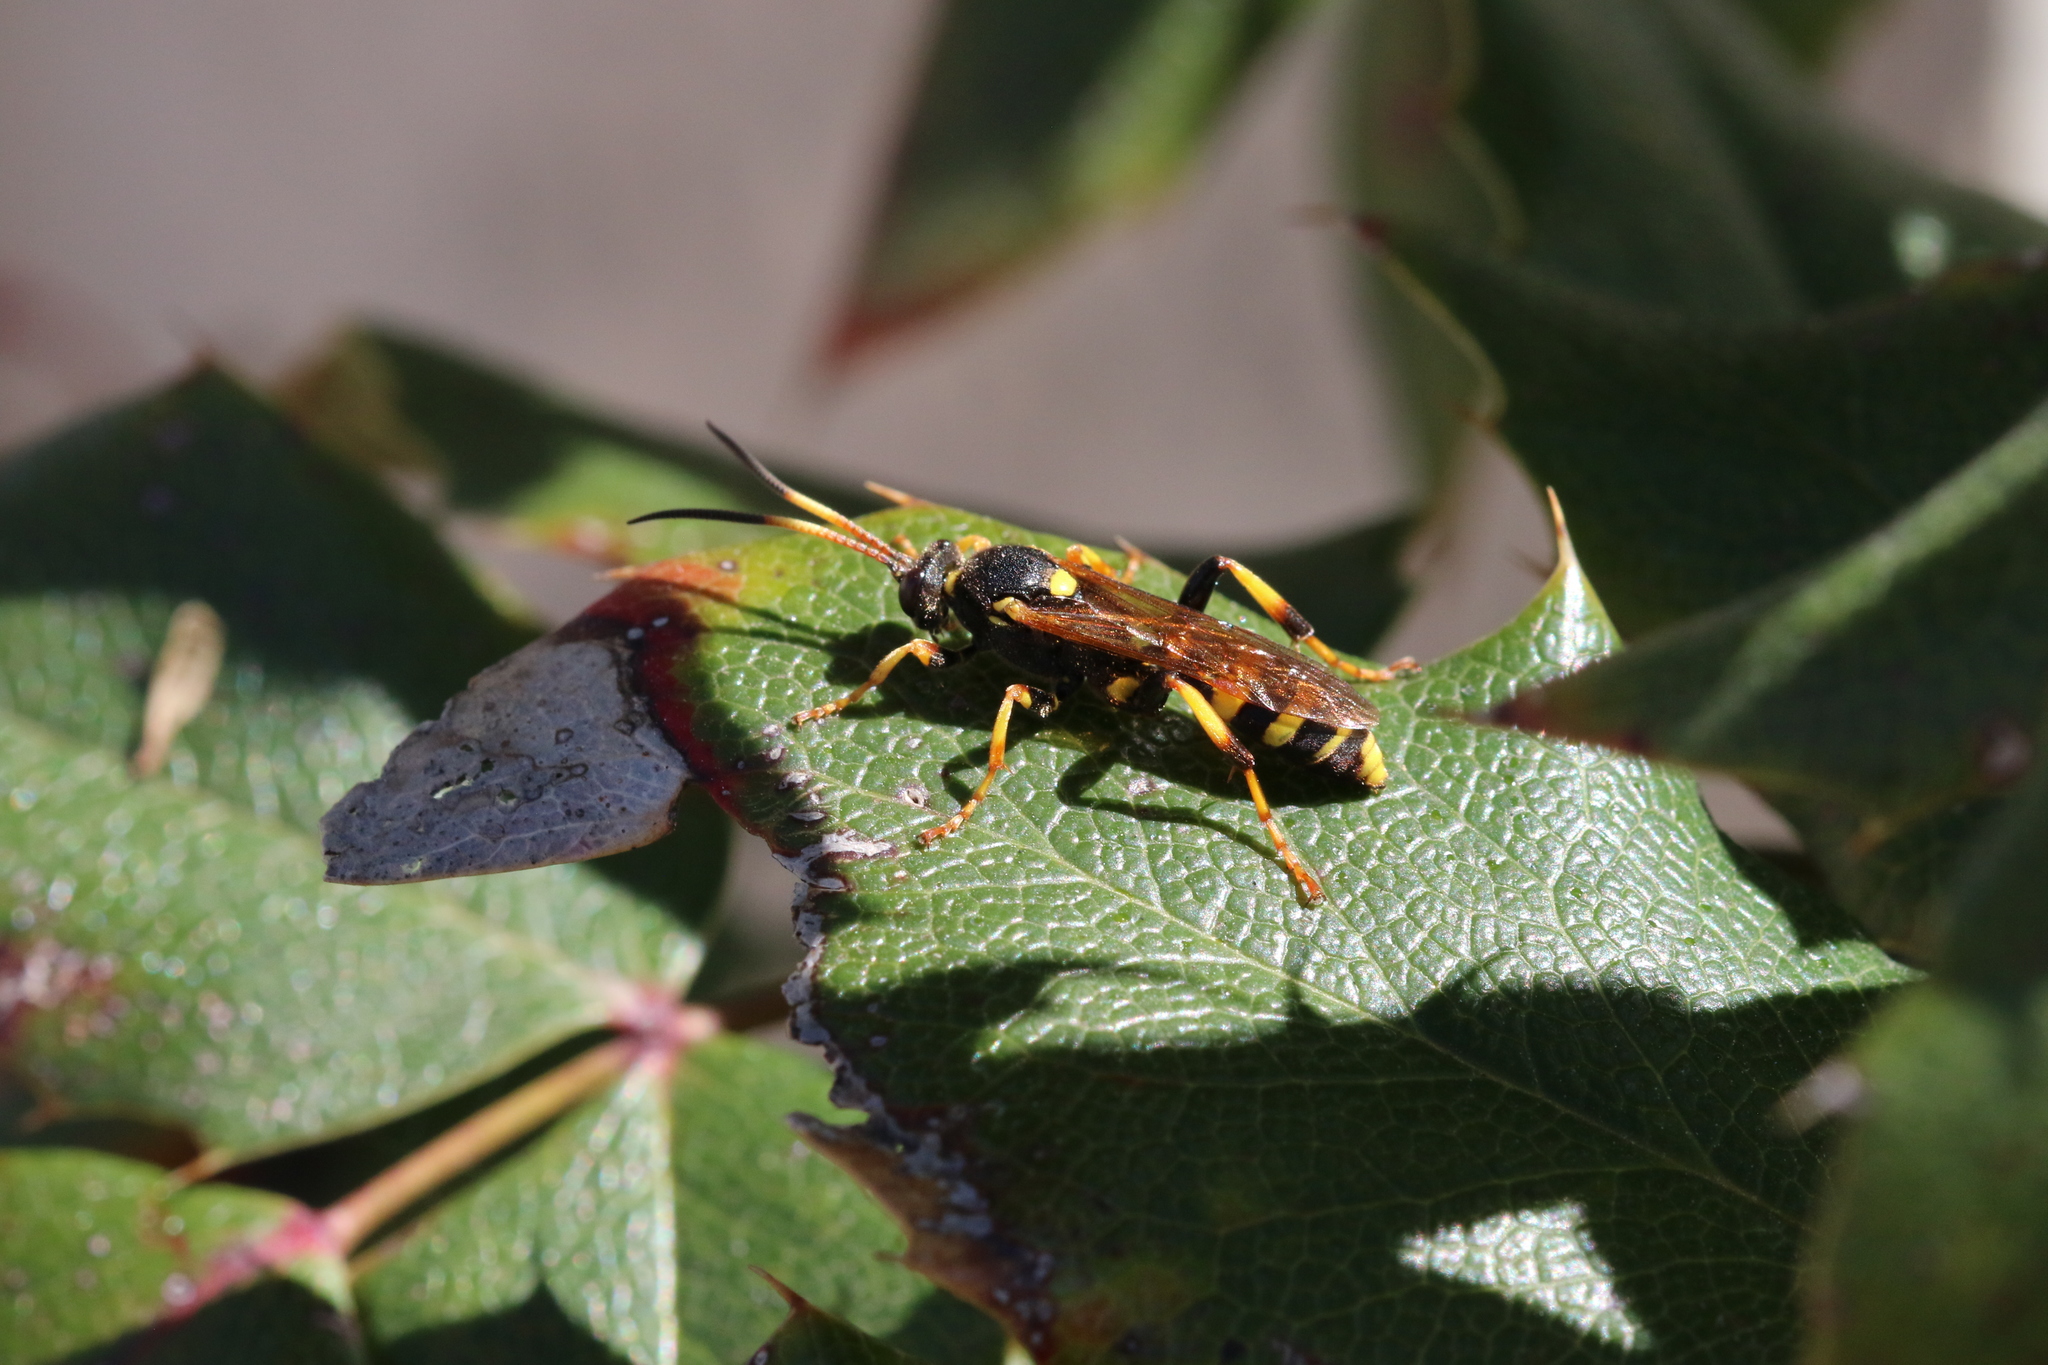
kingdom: Animalia
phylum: Arthropoda
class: Insecta
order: Hymenoptera
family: Ichneumonidae
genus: Ichneumon
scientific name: Ichneumon xanthorius
